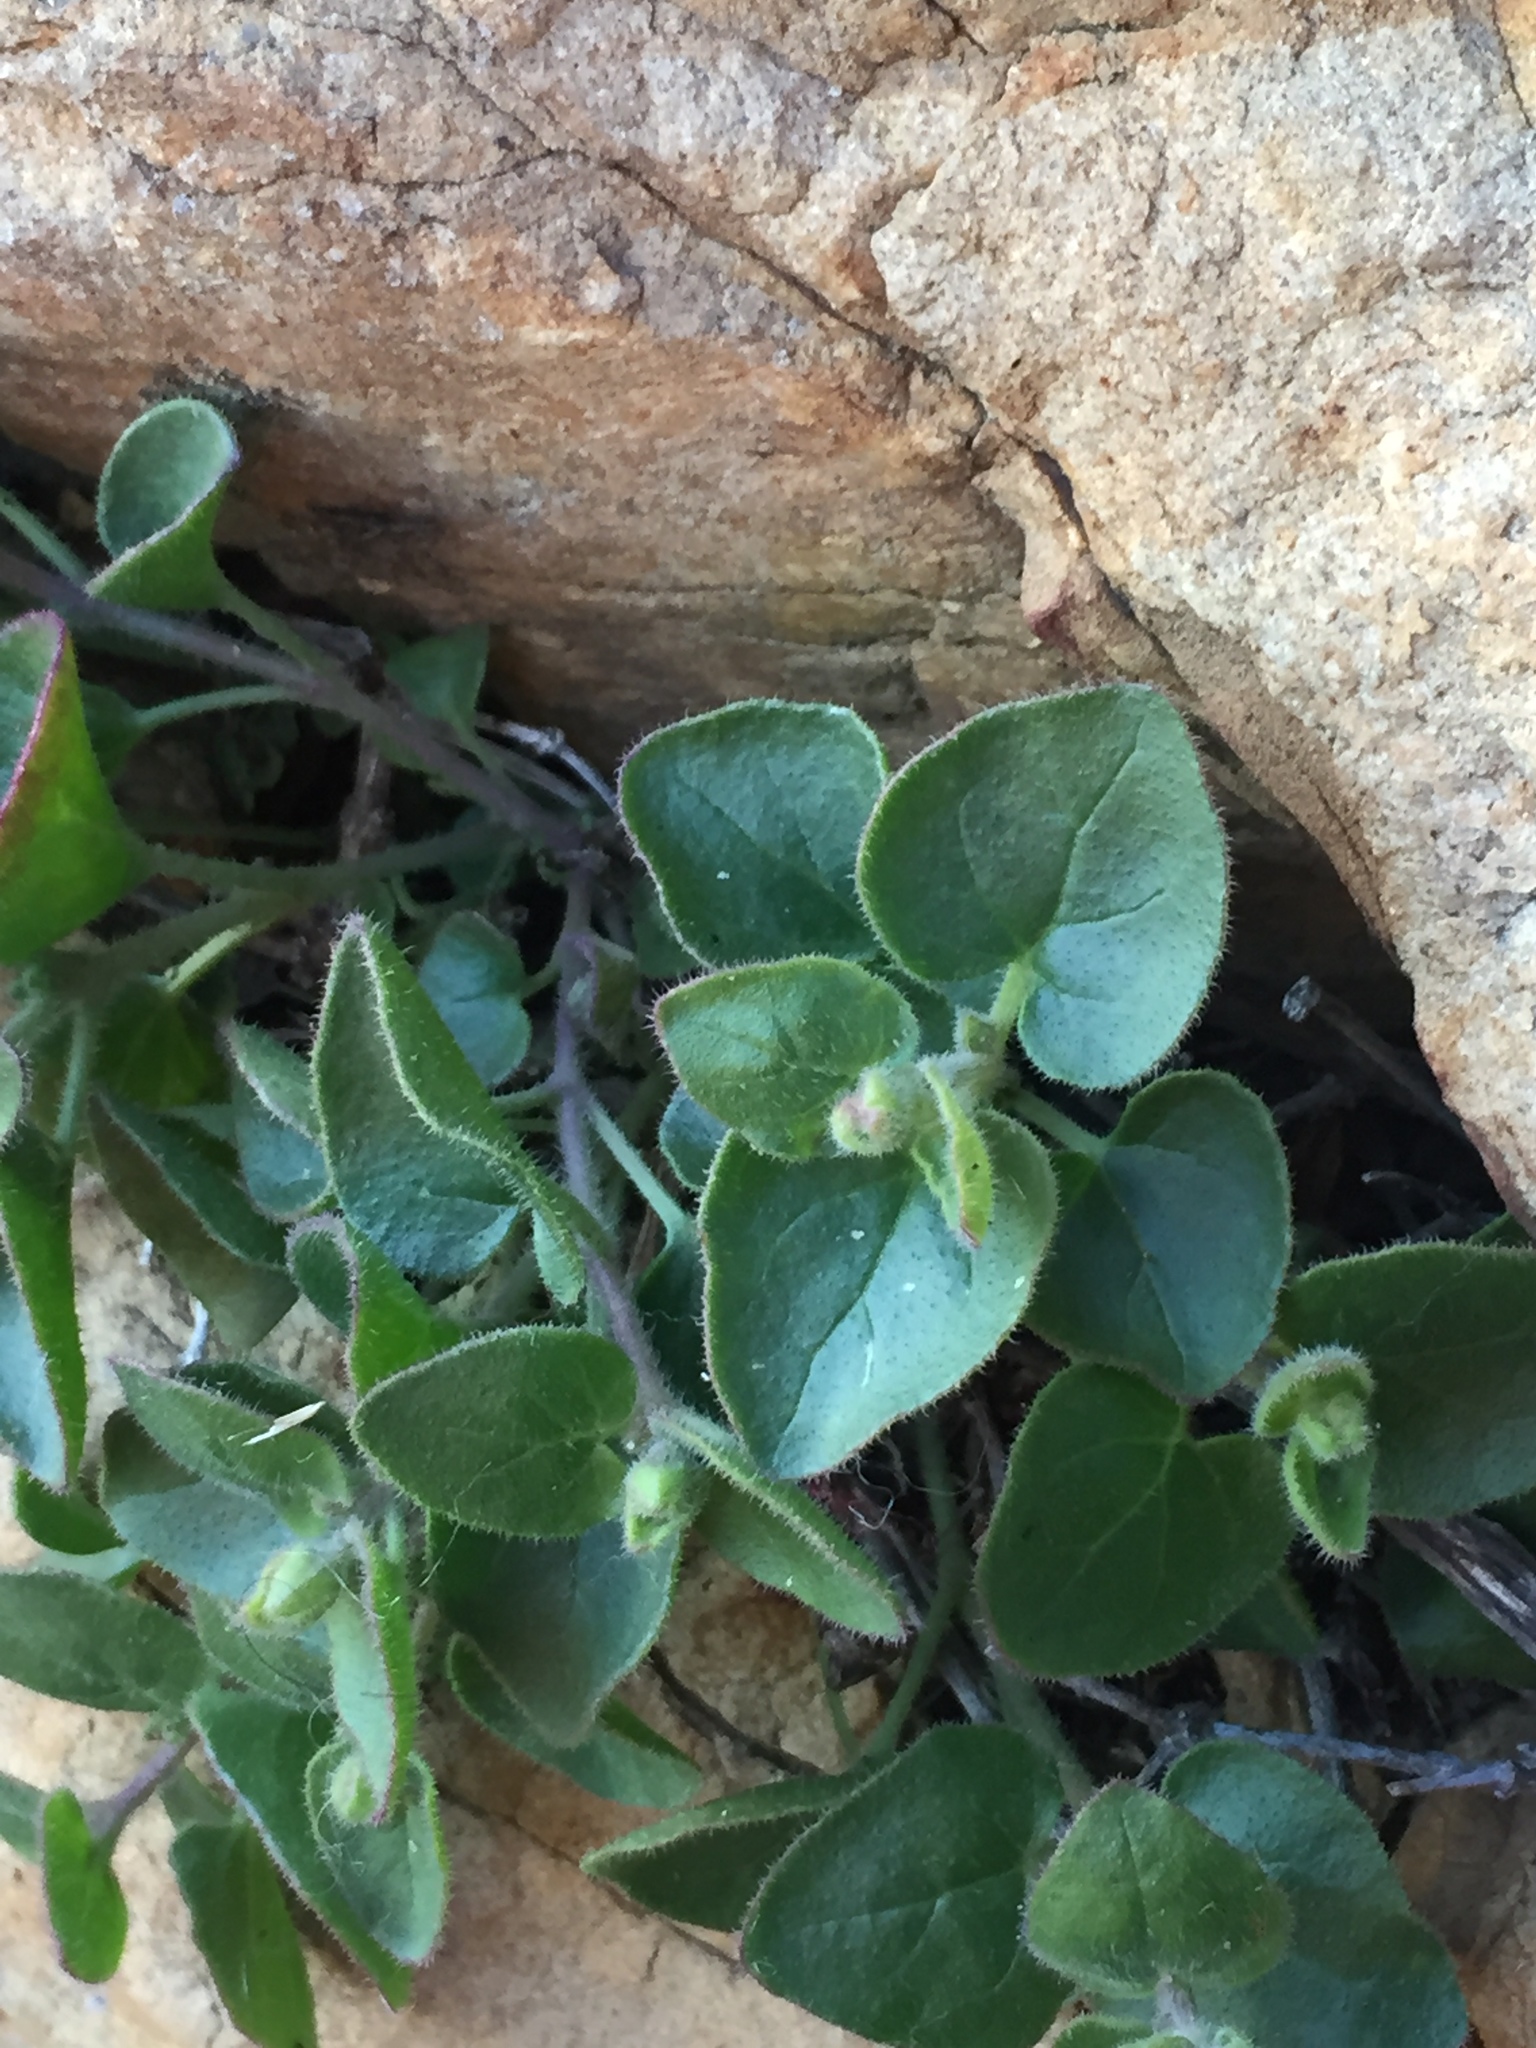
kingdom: Plantae
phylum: Tracheophyta
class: Magnoliopsida
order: Caryophyllales
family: Nyctaginaceae
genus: Mirabilis
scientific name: Mirabilis laevis
